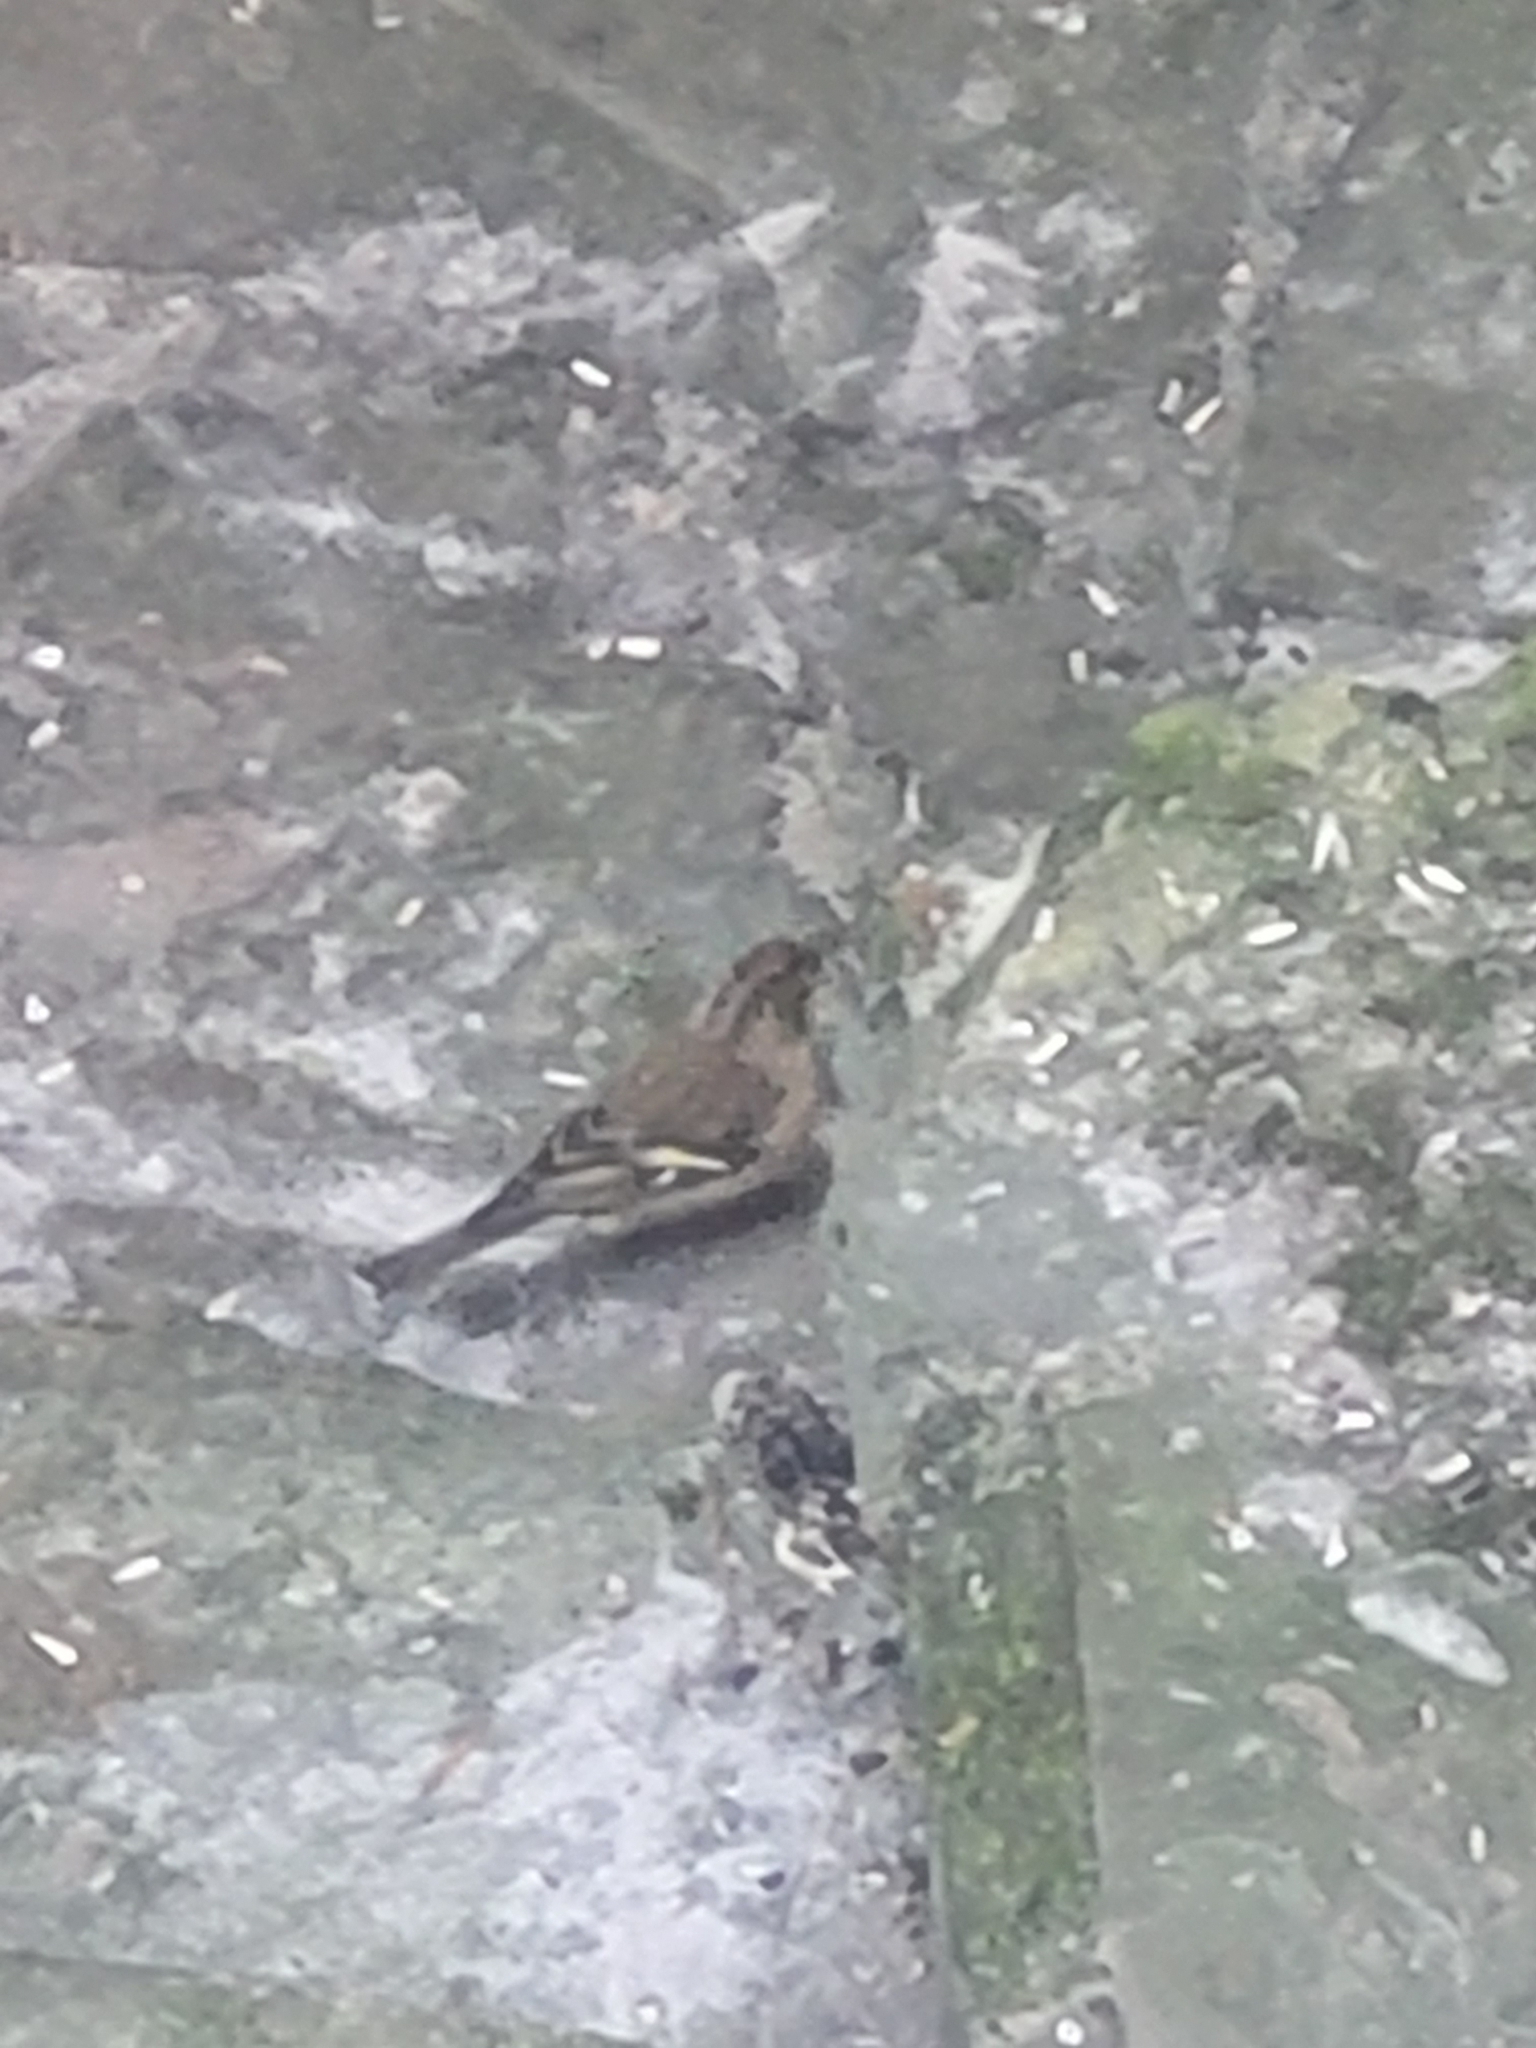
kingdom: Animalia
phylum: Chordata
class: Aves
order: Passeriformes
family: Fringillidae
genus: Fringilla
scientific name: Fringilla coelebs
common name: Common chaffinch
